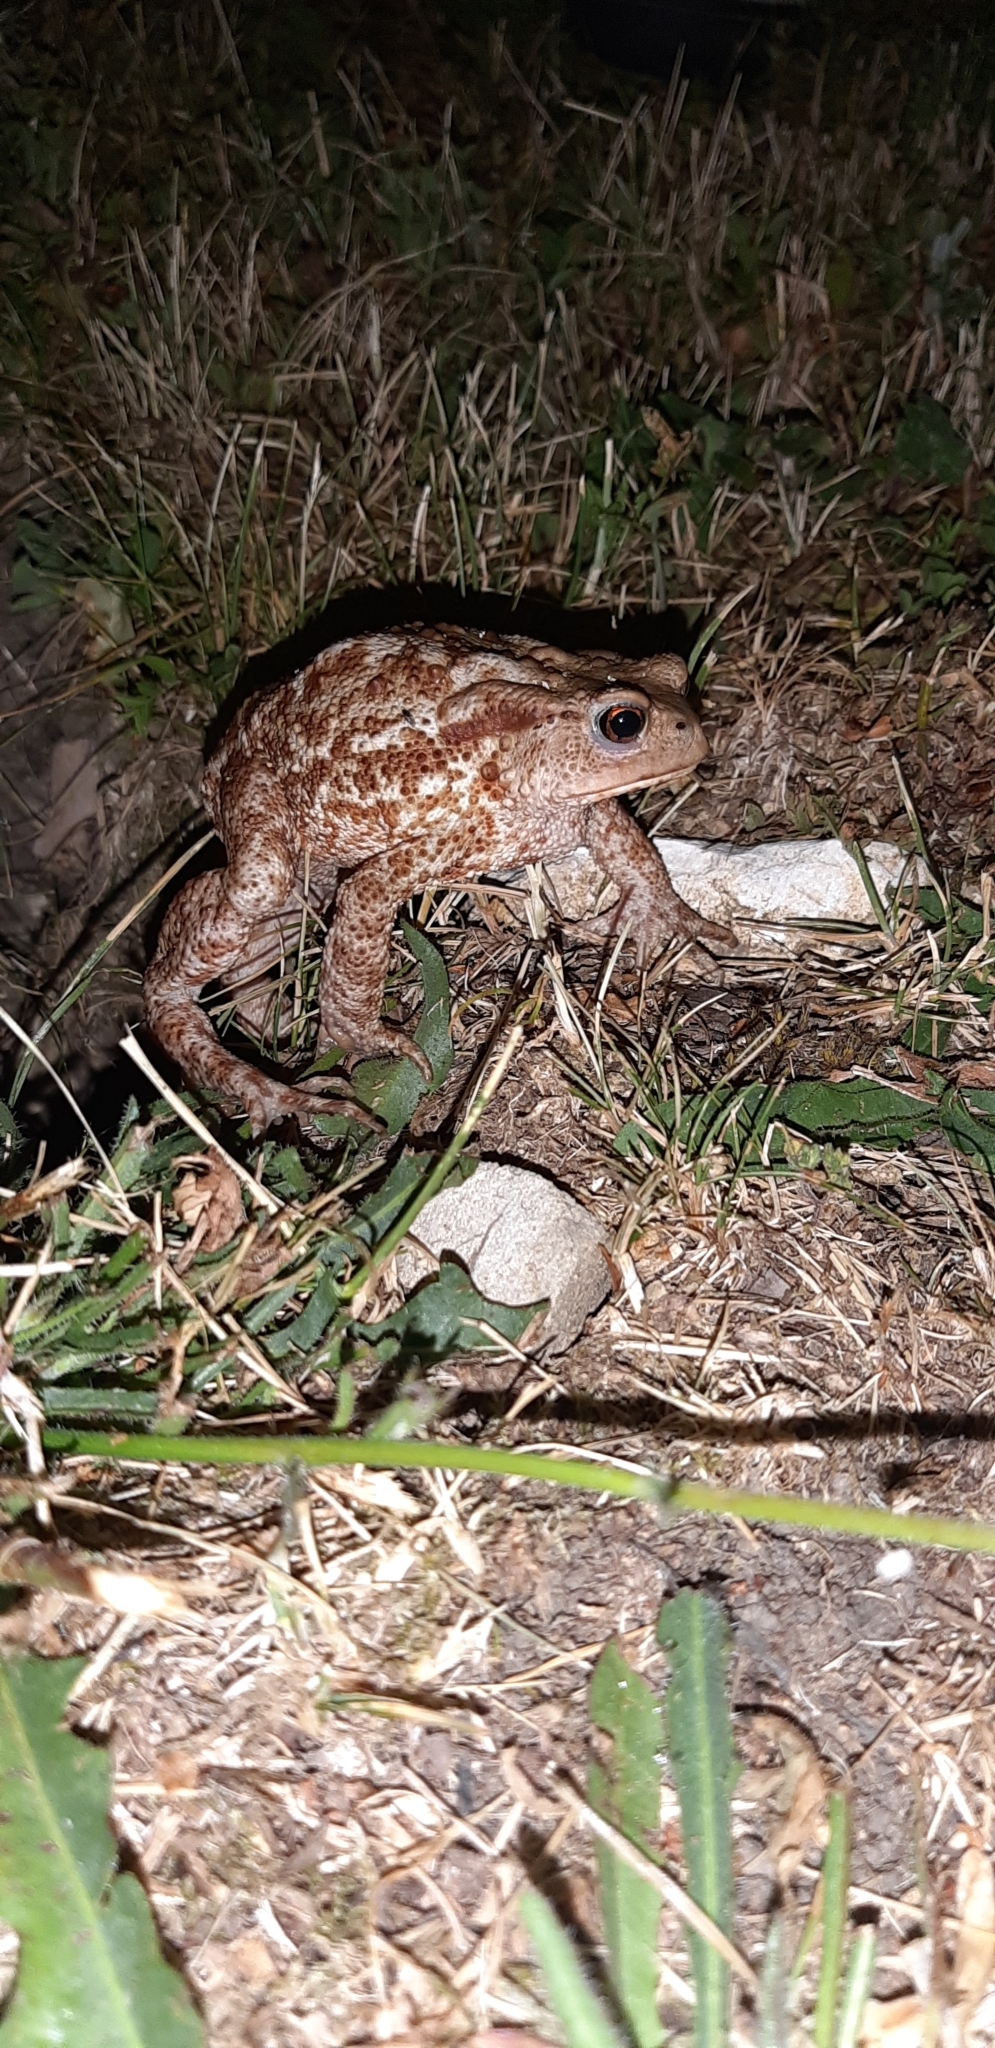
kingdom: Animalia
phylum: Chordata
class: Amphibia
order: Anura
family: Bufonidae
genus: Bufo
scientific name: Bufo bufo
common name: Common toad
